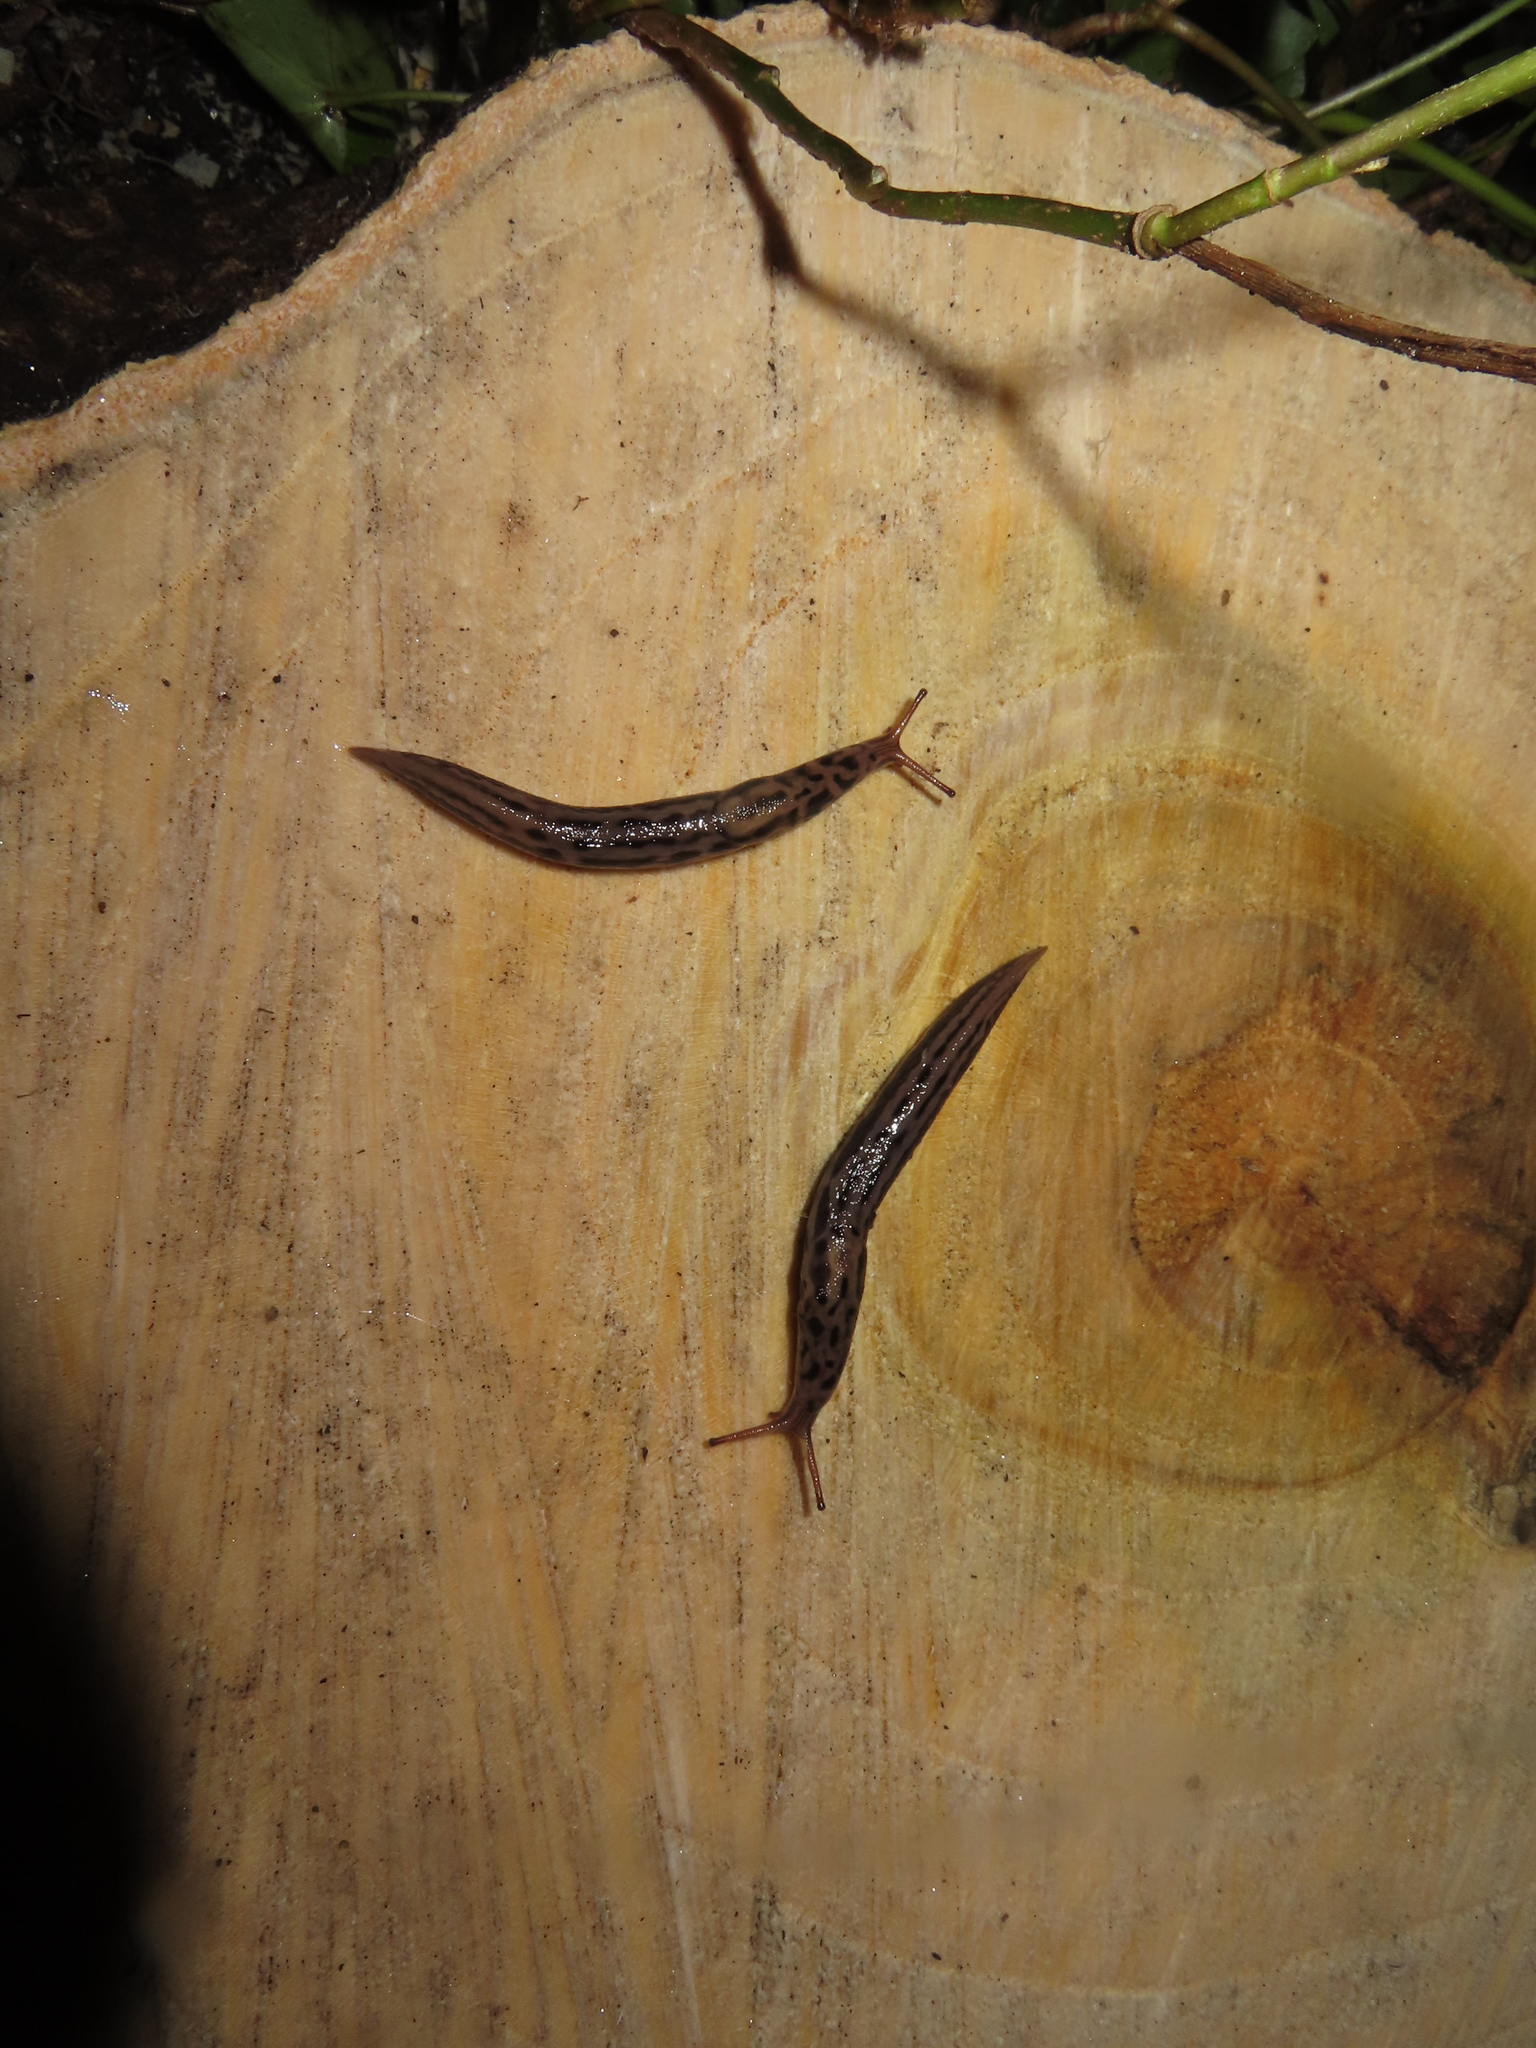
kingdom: Animalia
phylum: Mollusca
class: Gastropoda
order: Stylommatophora
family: Limacidae
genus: Limax
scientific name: Limax maximus
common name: Great grey slug
